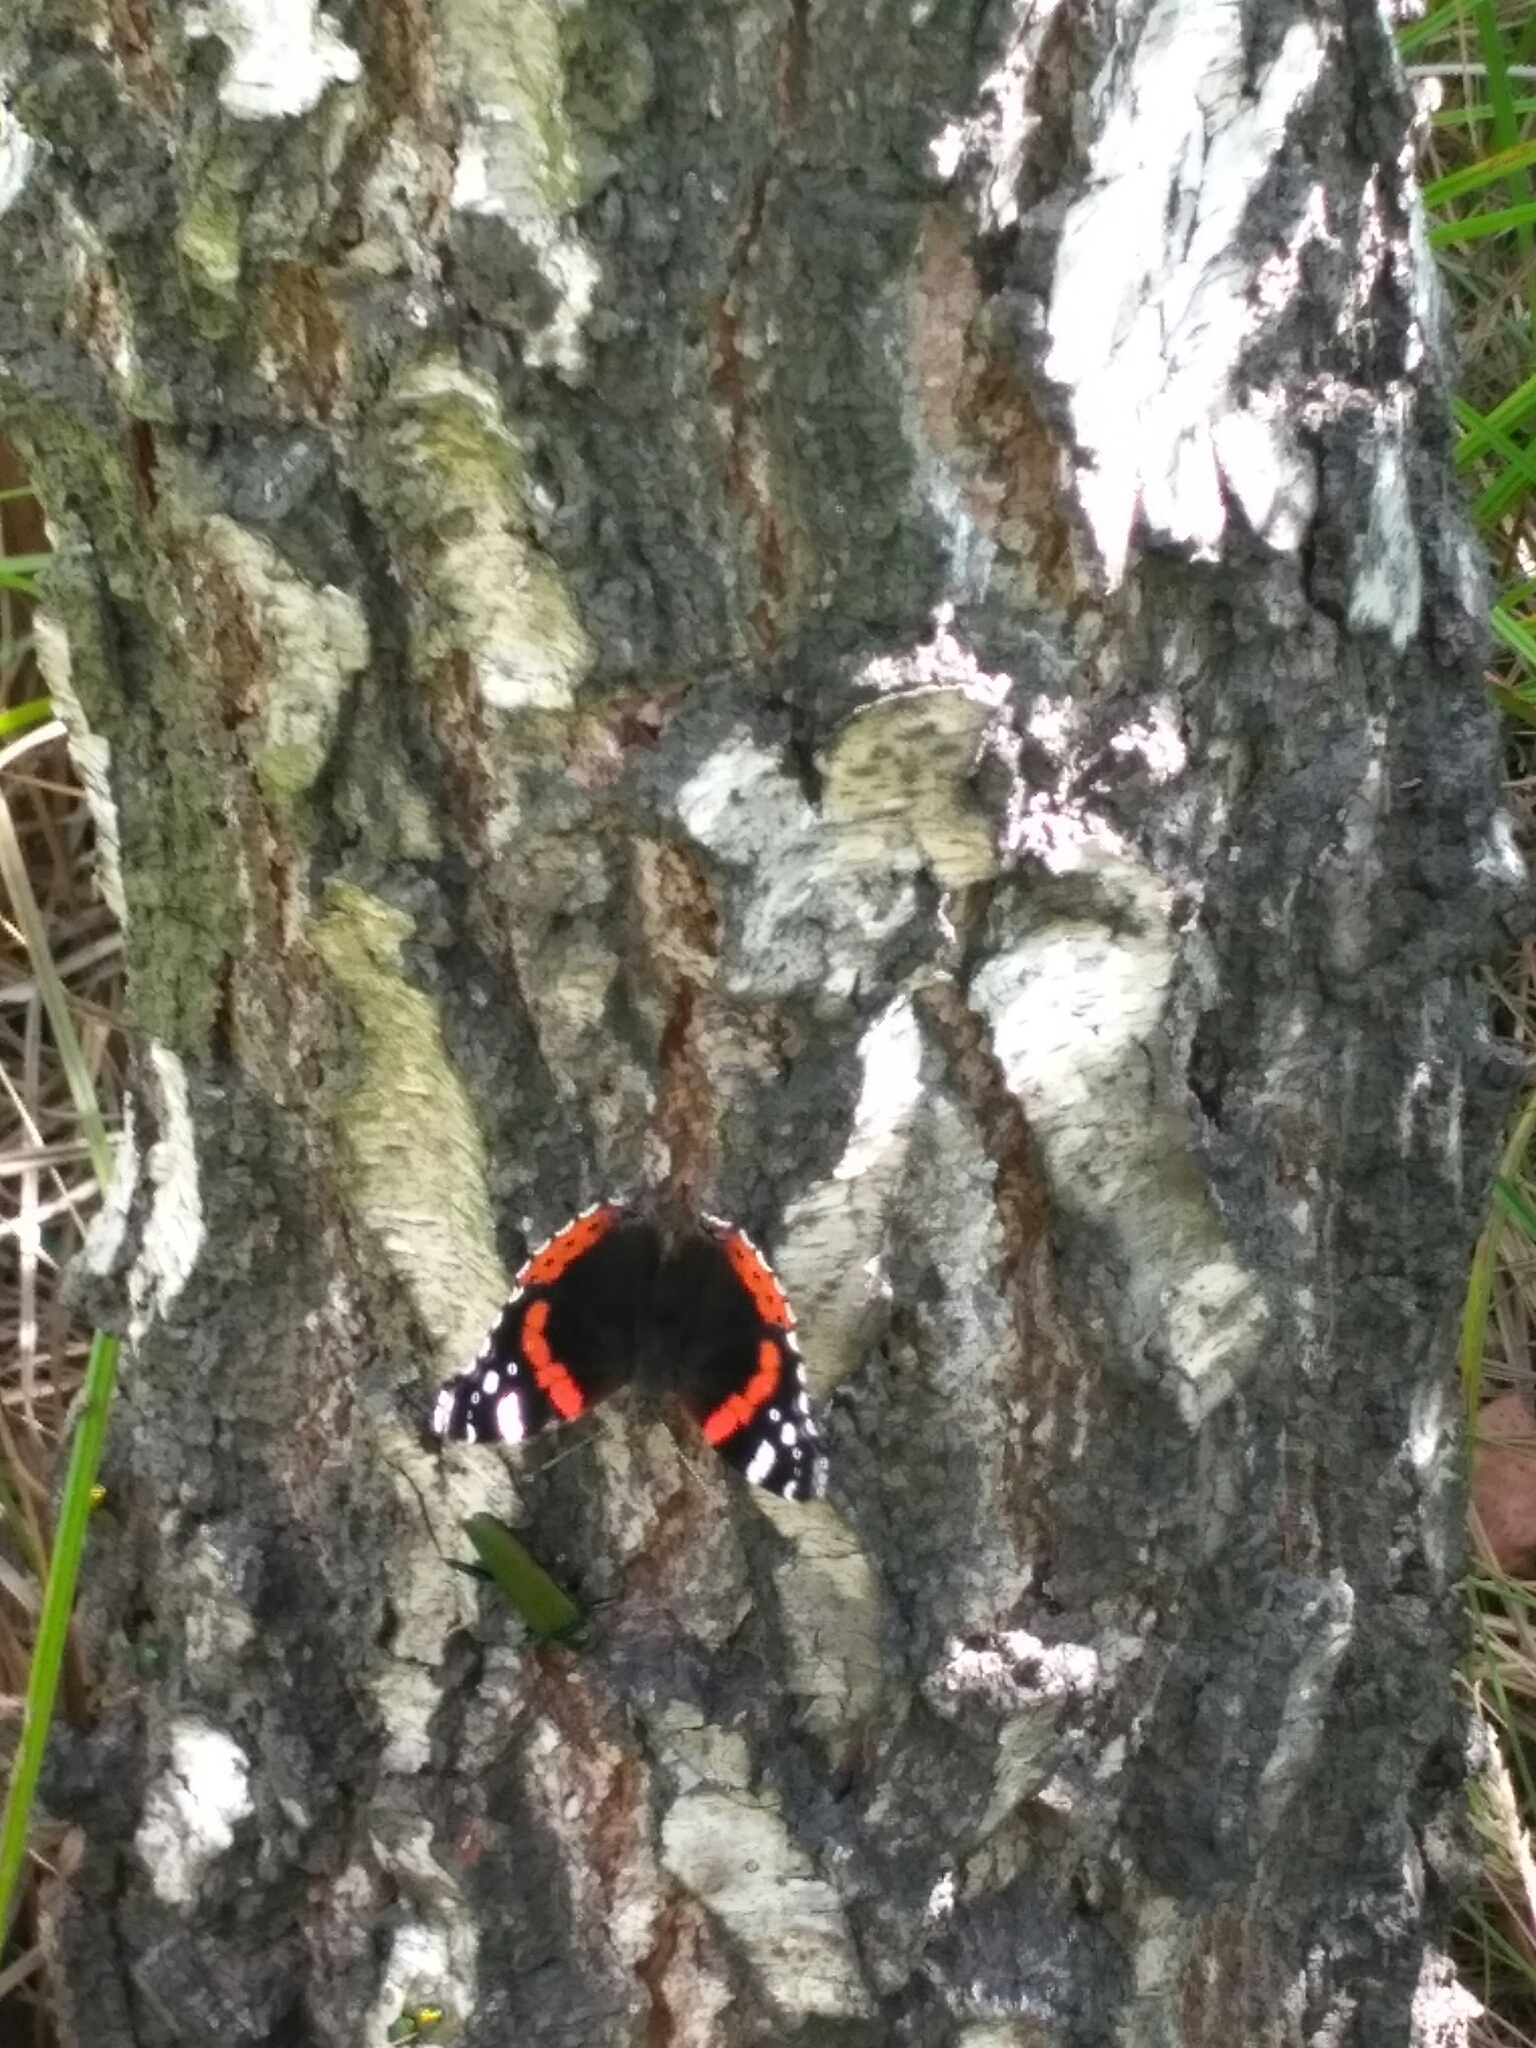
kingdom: Animalia
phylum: Arthropoda
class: Insecta
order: Lepidoptera
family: Nymphalidae
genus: Vanessa
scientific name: Vanessa atalanta
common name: Red admiral
